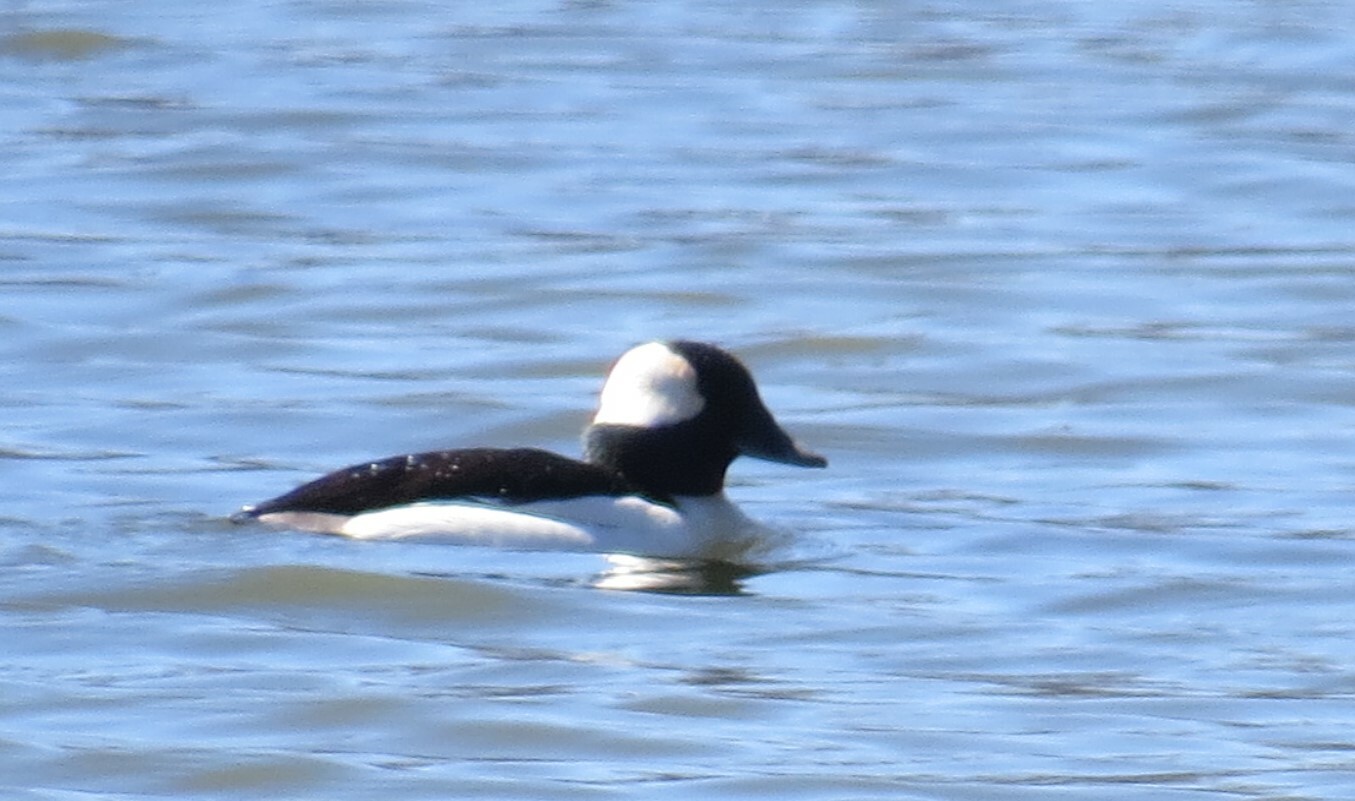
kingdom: Animalia
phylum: Chordata
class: Aves
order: Anseriformes
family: Anatidae
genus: Bucephala
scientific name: Bucephala albeola
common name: Bufflehead
